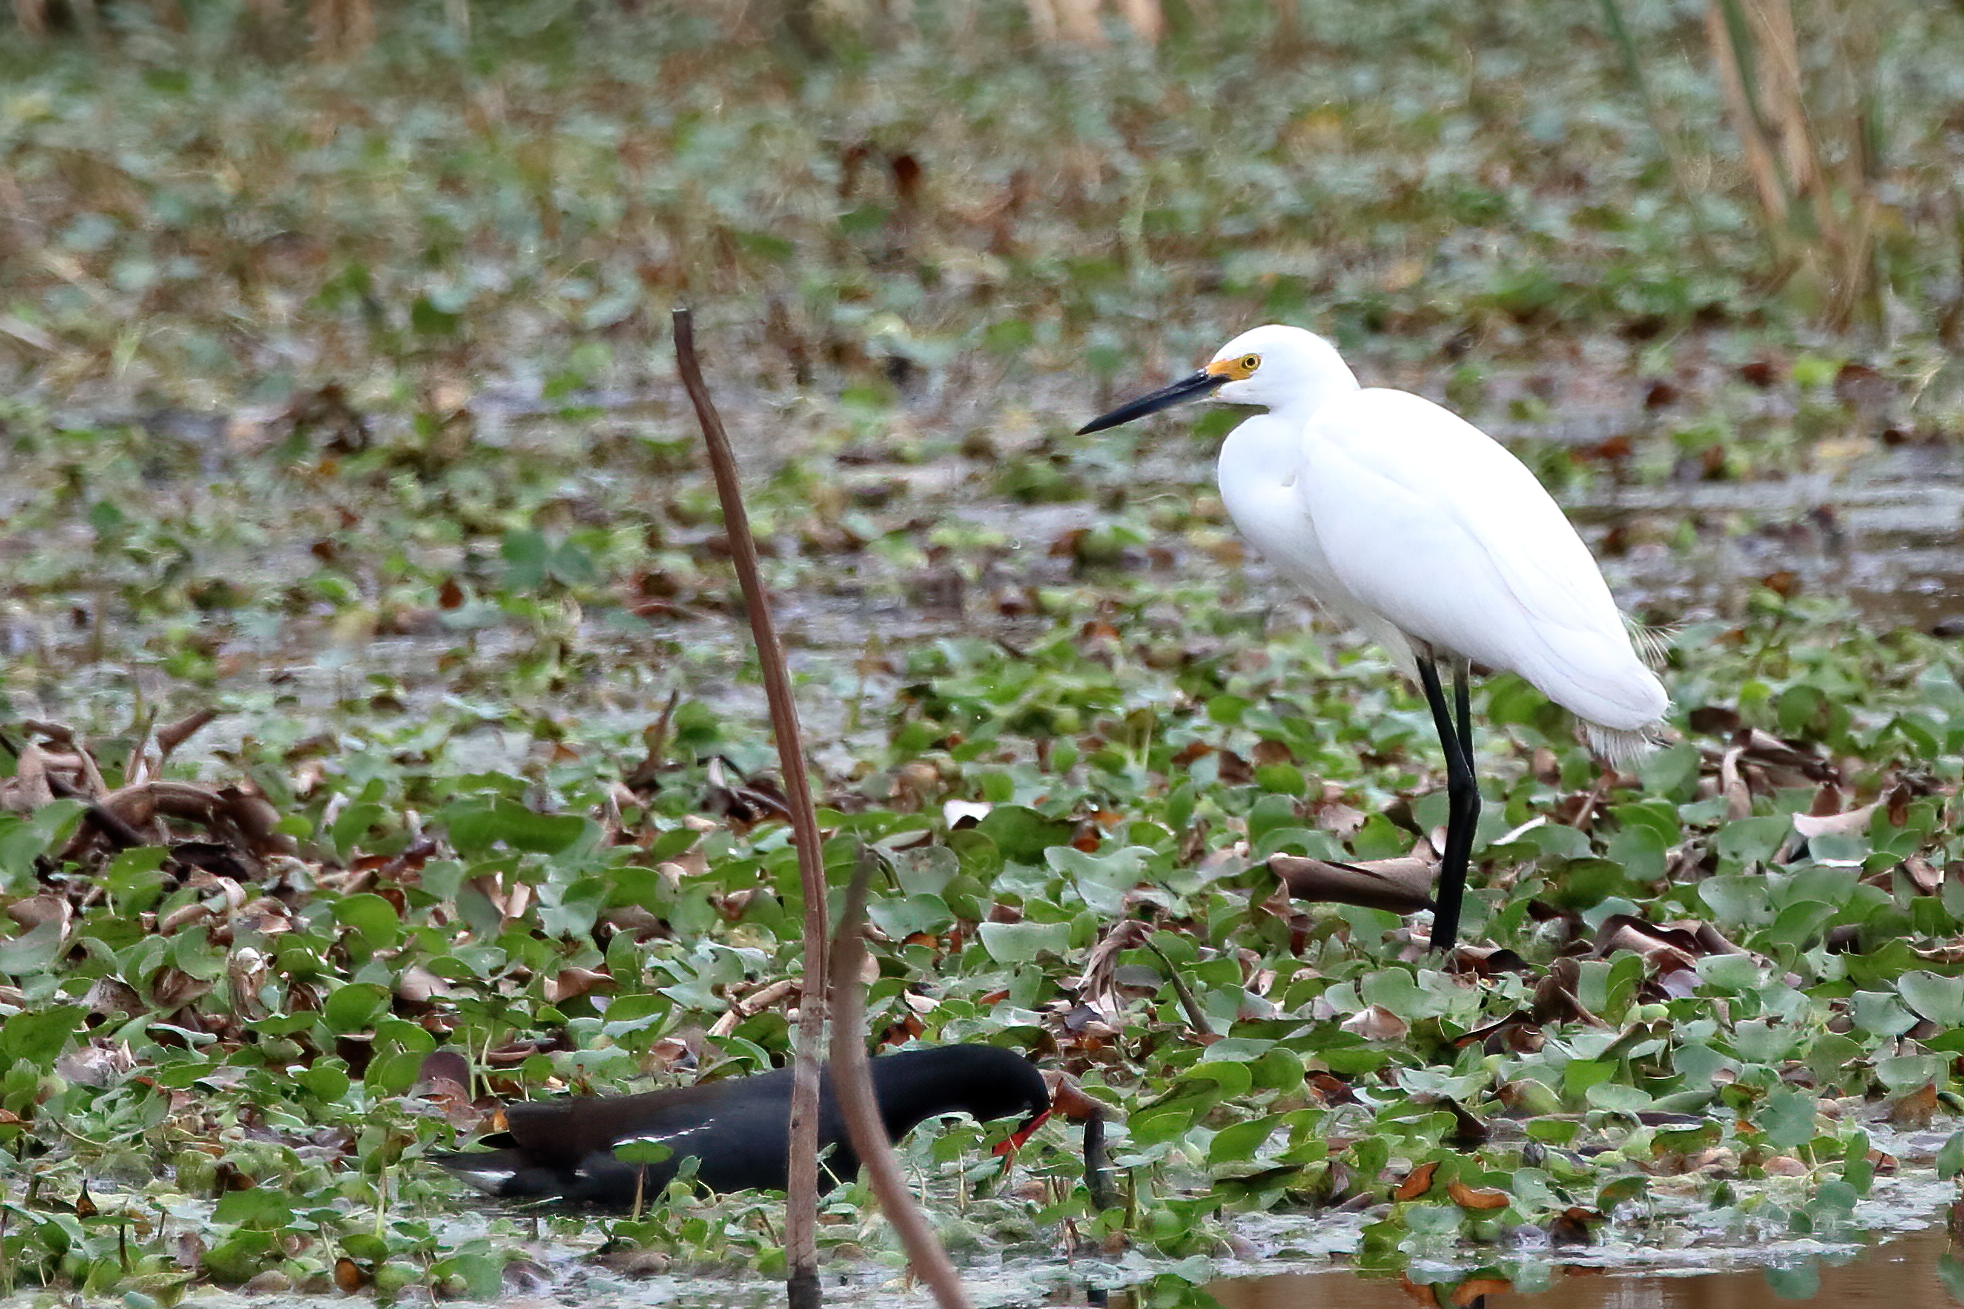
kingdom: Animalia
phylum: Chordata
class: Aves
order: Pelecaniformes
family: Ardeidae
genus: Egretta
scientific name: Egretta thula
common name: Snowy egret
